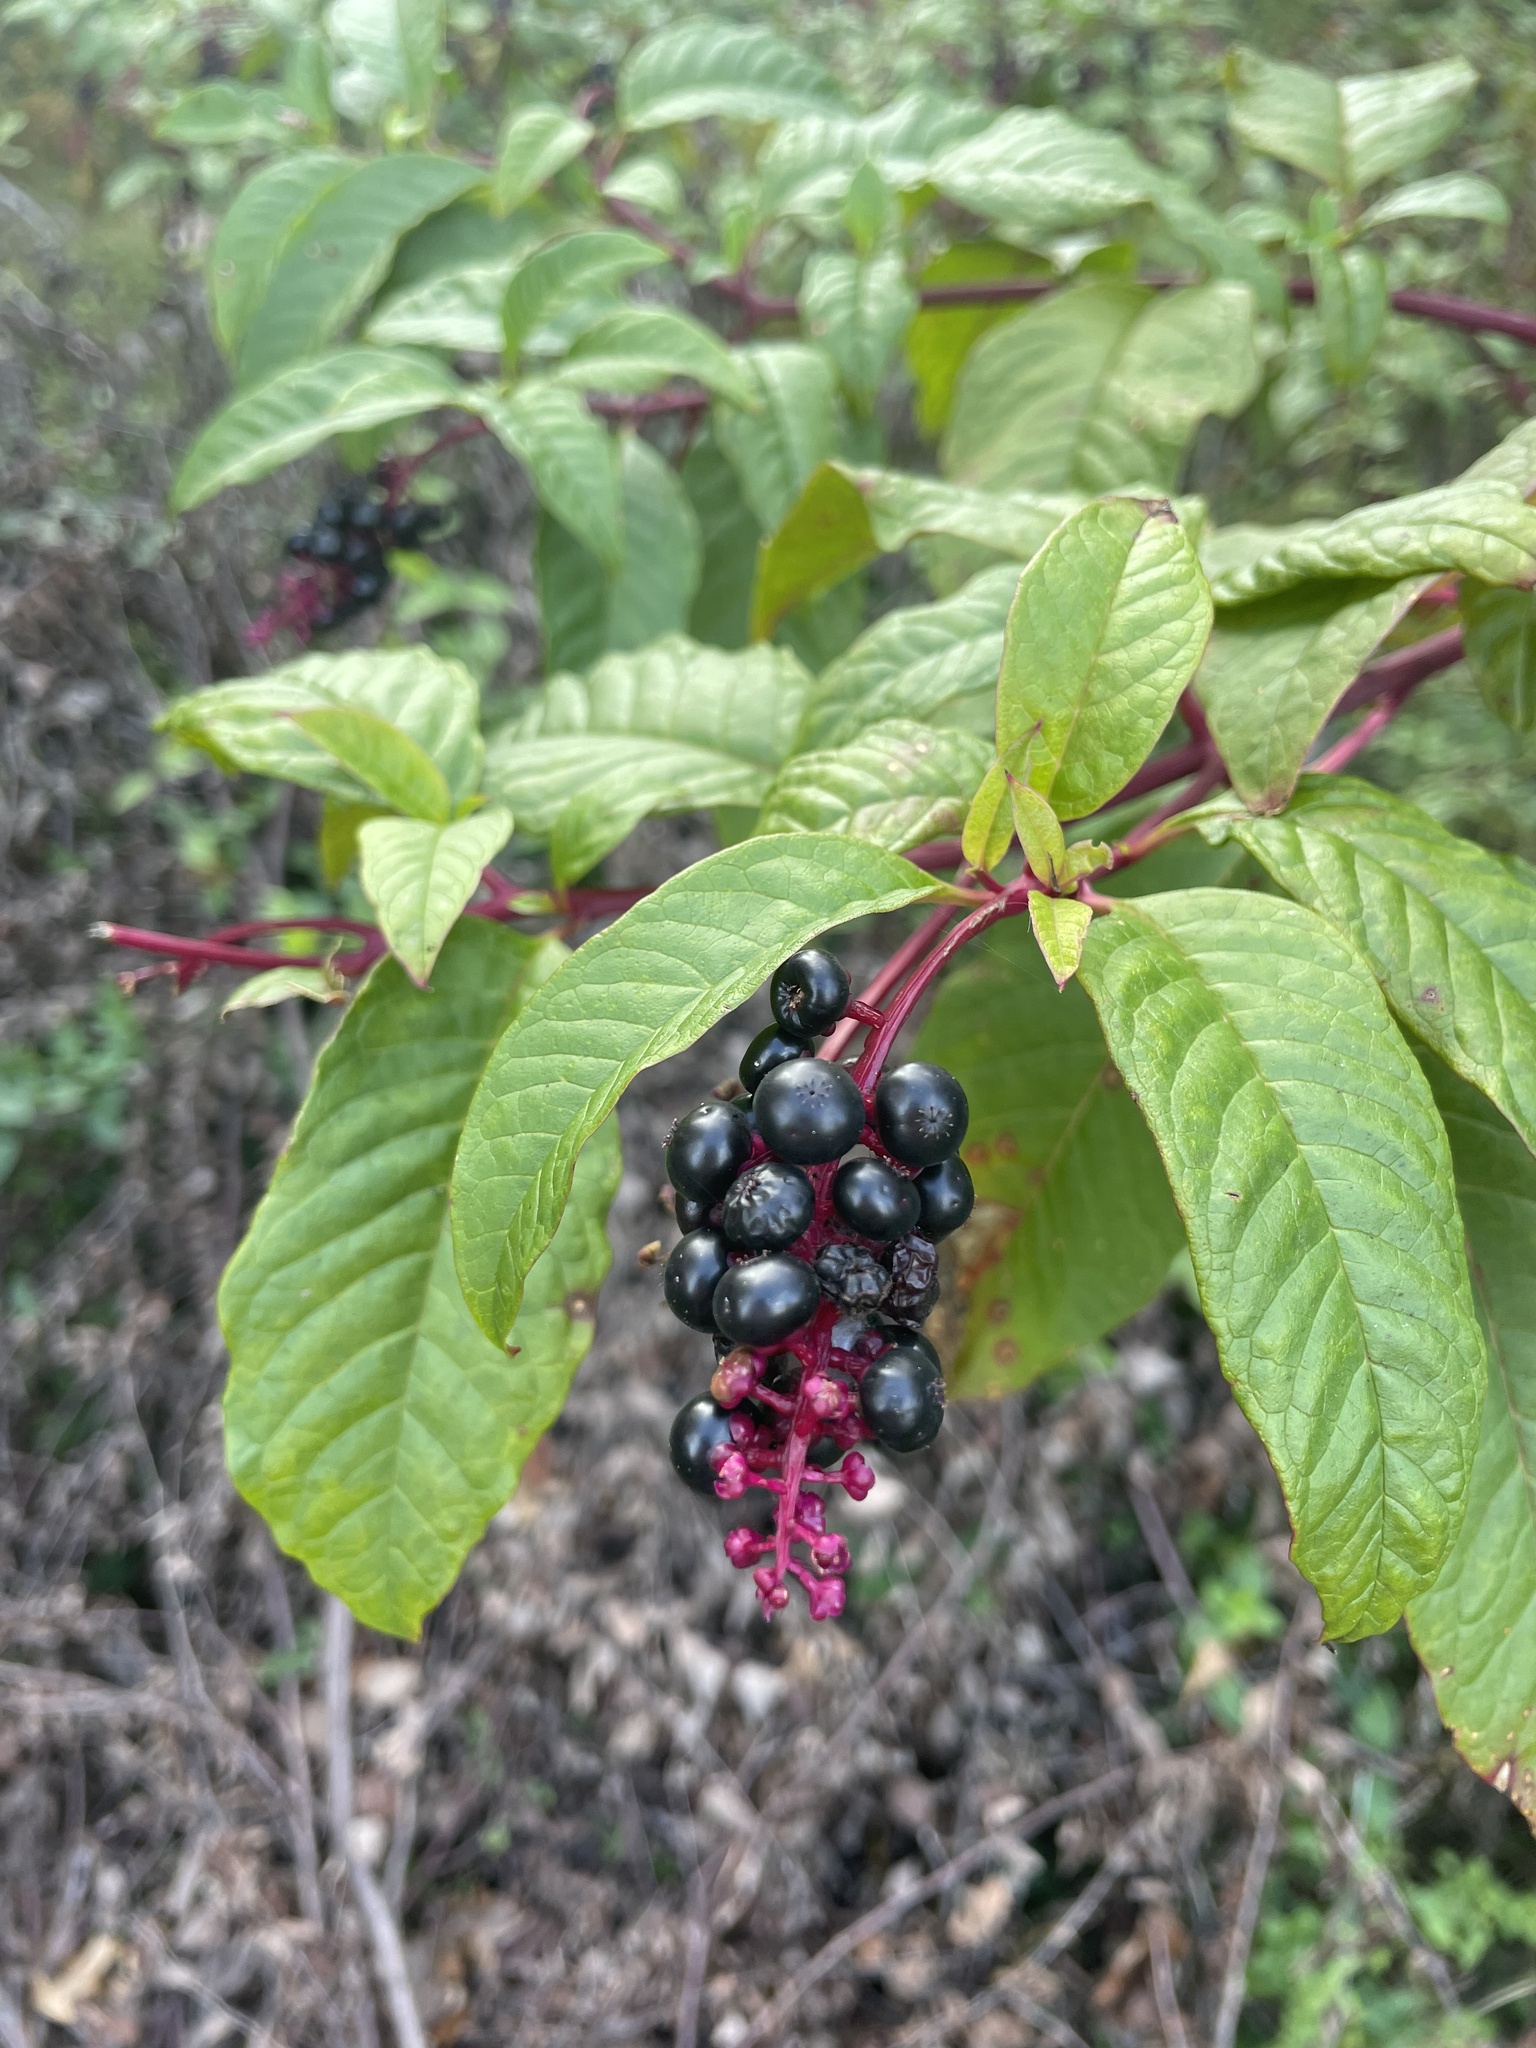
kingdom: Plantae
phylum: Tracheophyta
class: Magnoliopsida
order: Caryophyllales
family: Phytolaccaceae
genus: Phytolacca
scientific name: Phytolacca americana
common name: American pokeweed
